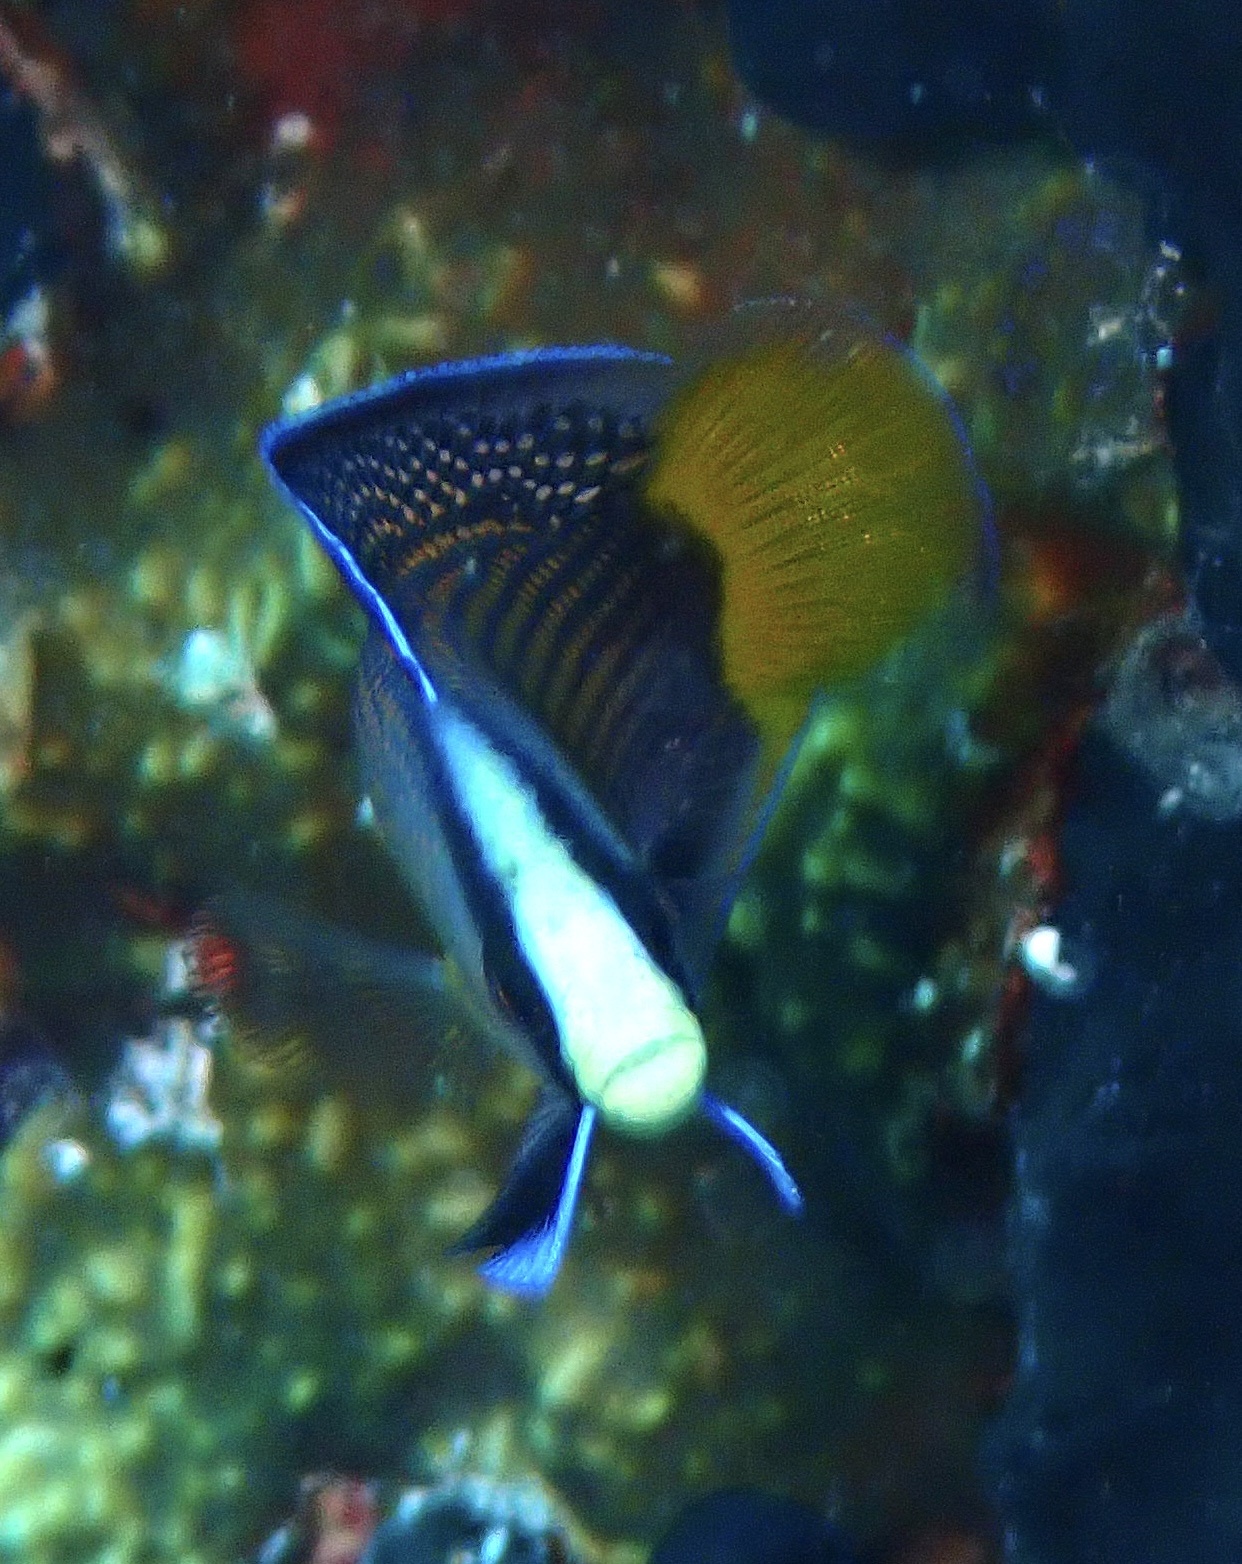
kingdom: Animalia
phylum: Chordata
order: Perciformes
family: Pseudochromidae
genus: Manonichthys
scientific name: Manonichthys splendens
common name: Splendid dottyback
